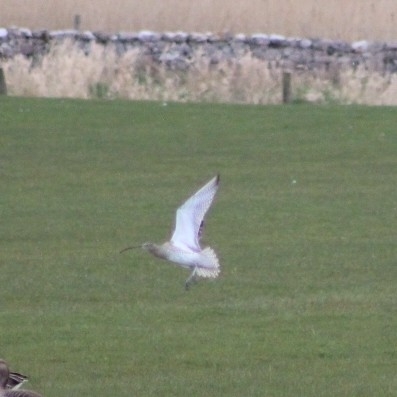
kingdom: Animalia
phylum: Chordata
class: Aves
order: Charadriiformes
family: Scolopacidae
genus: Numenius
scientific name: Numenius arquata
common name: Eurasian curlew
